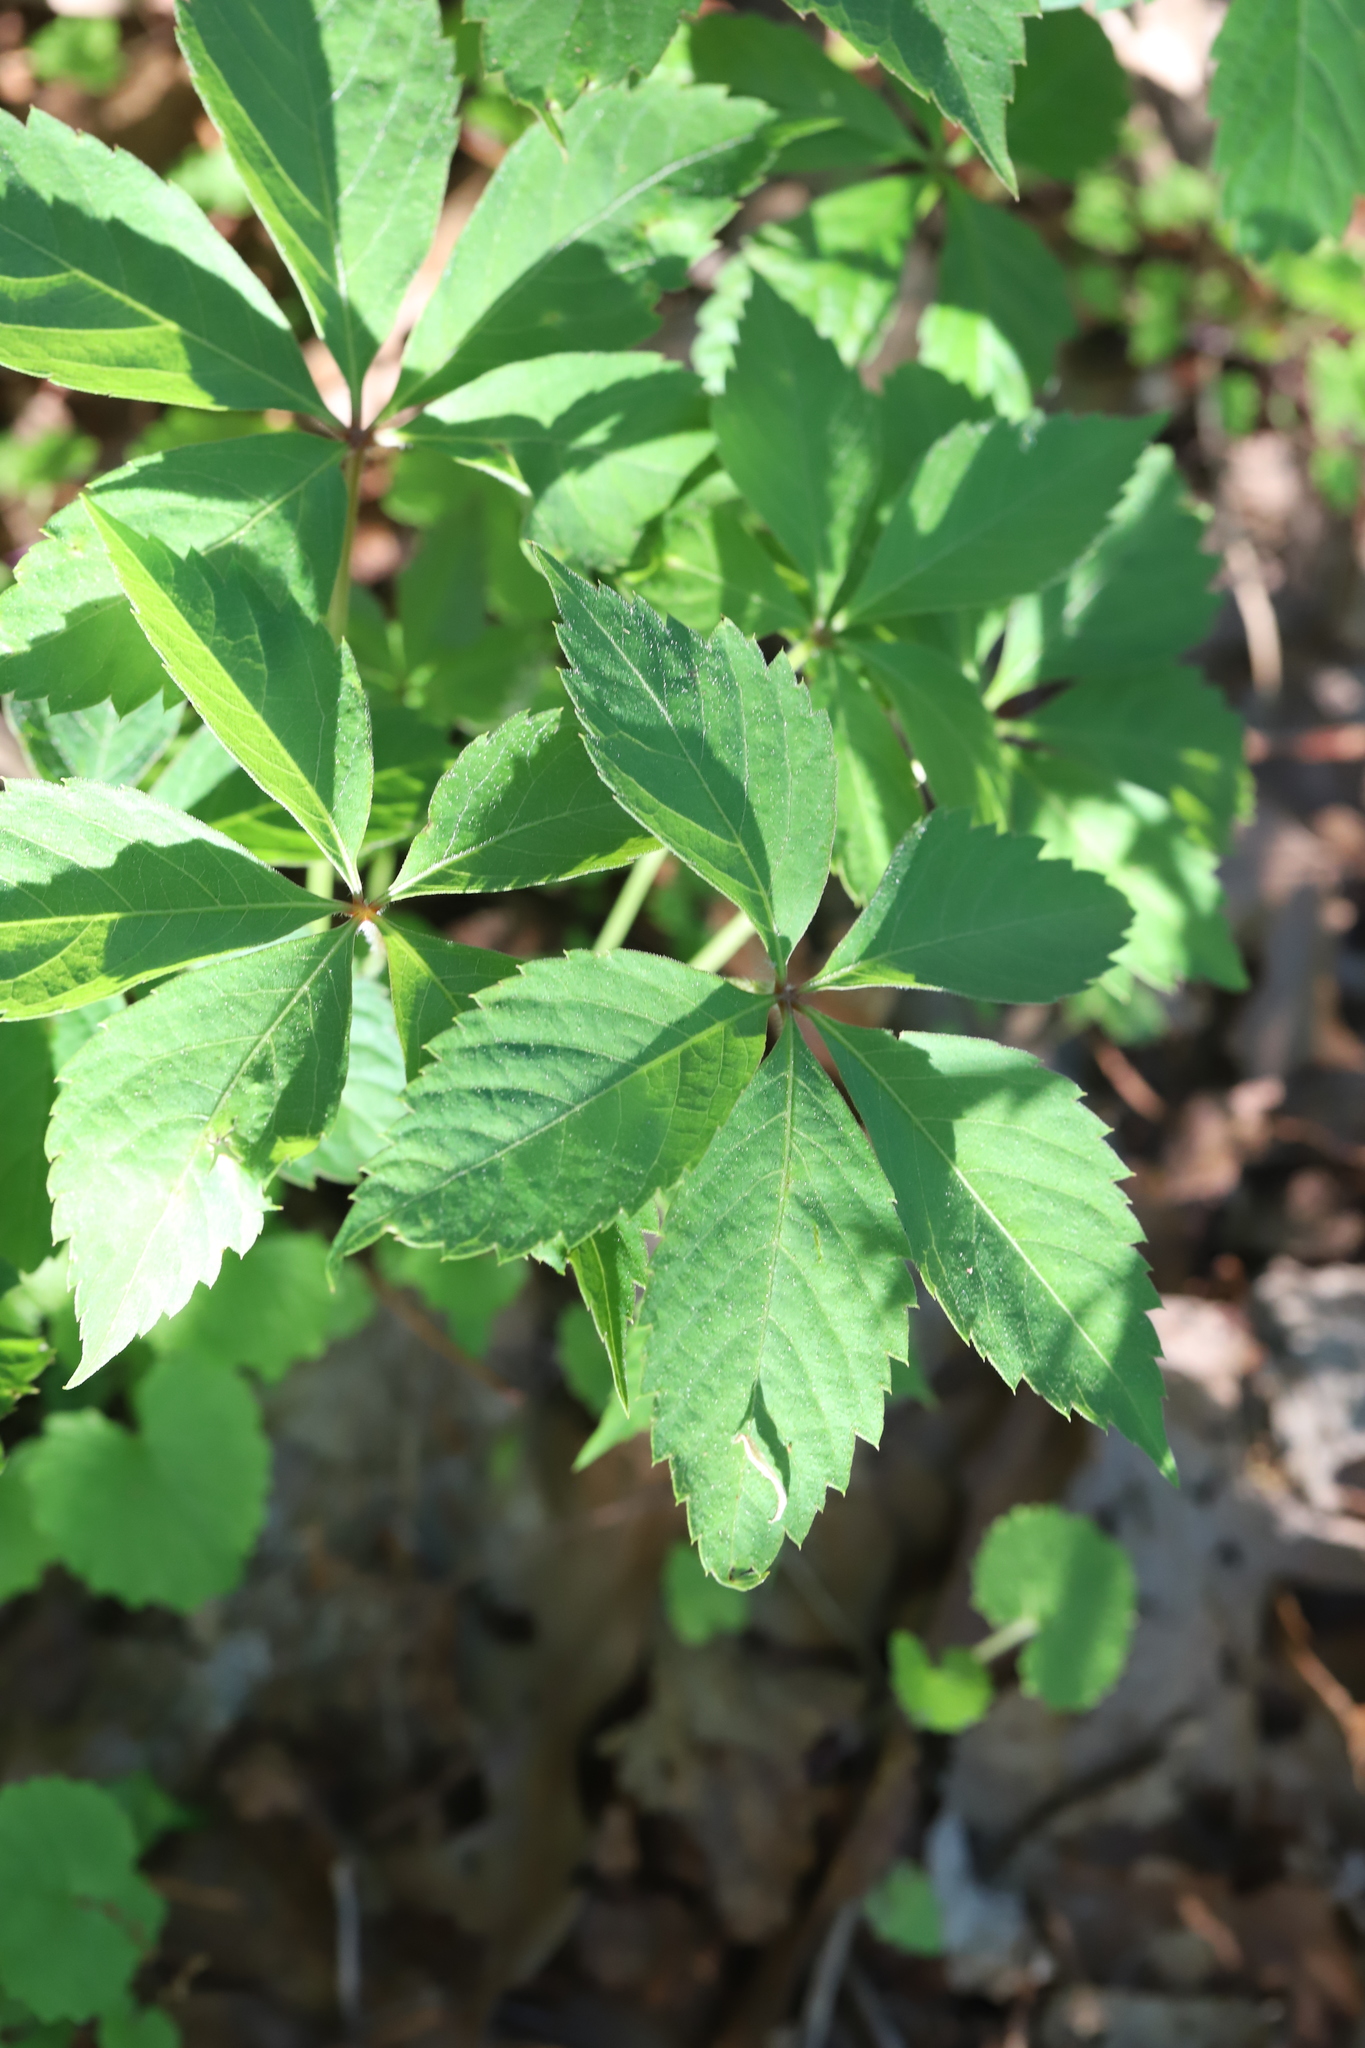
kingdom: Plantae
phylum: Tracheophyta
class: Magnoliopsida
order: Vitales
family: Vitaceae
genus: Parthenocissus
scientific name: Parthenocissus quinquefolia
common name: Virginia-creeper
